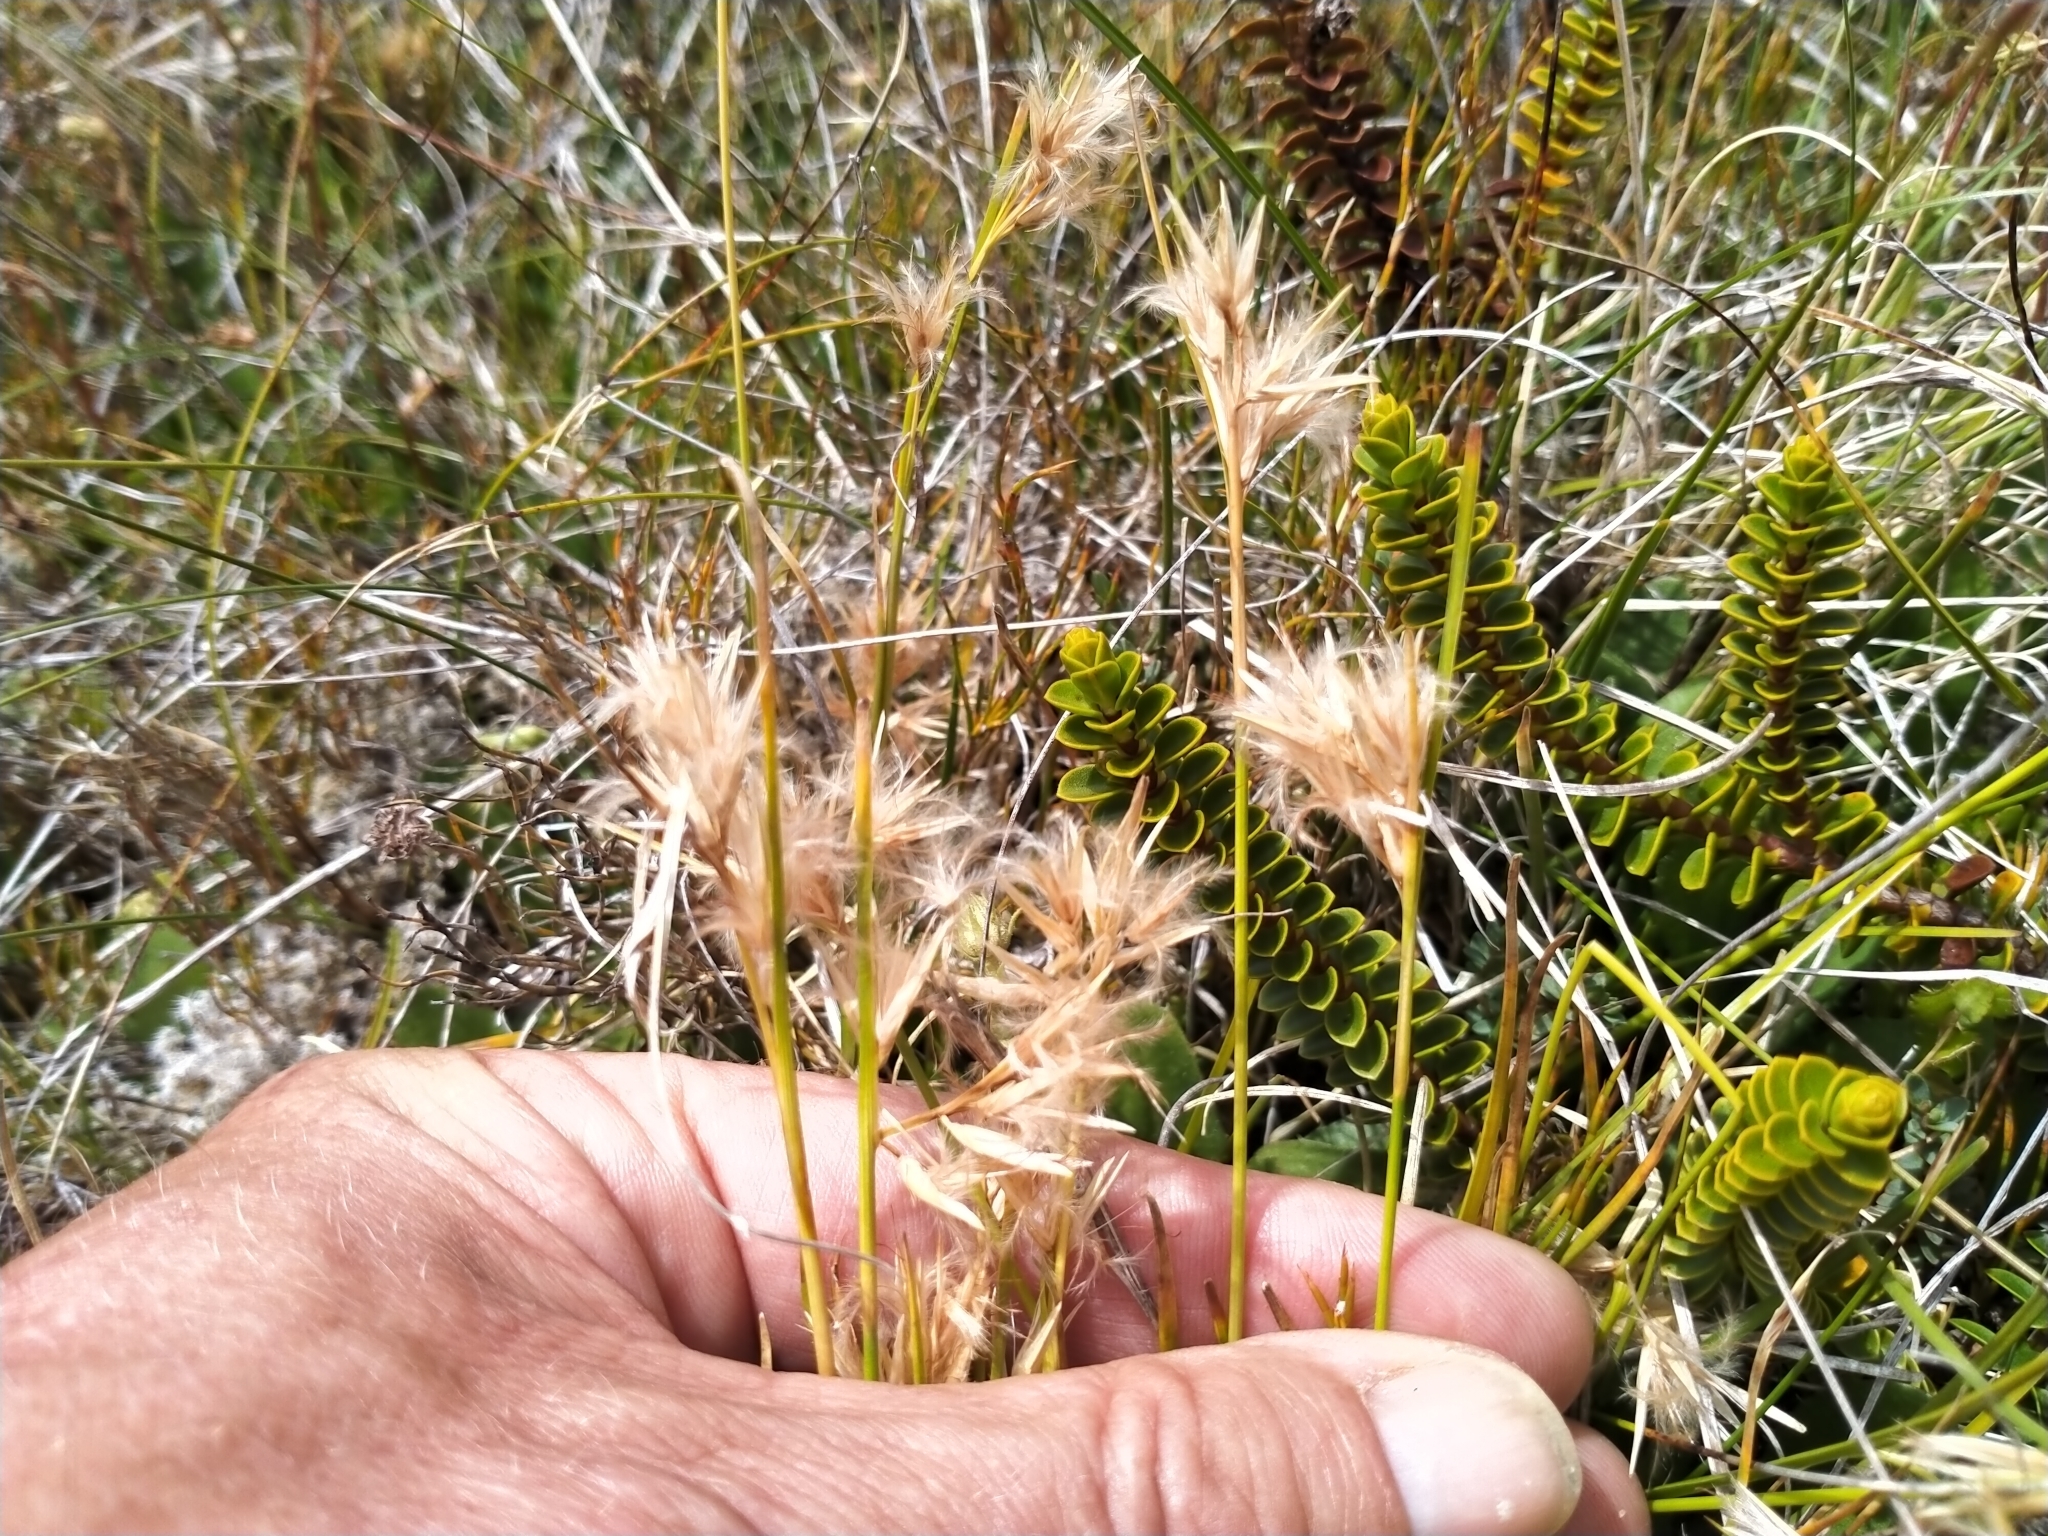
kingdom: Plantae
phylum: Tracheophyta
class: Liliopsida
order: Poales
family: Cyperaceae
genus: Carpha
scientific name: Carpha alpina
